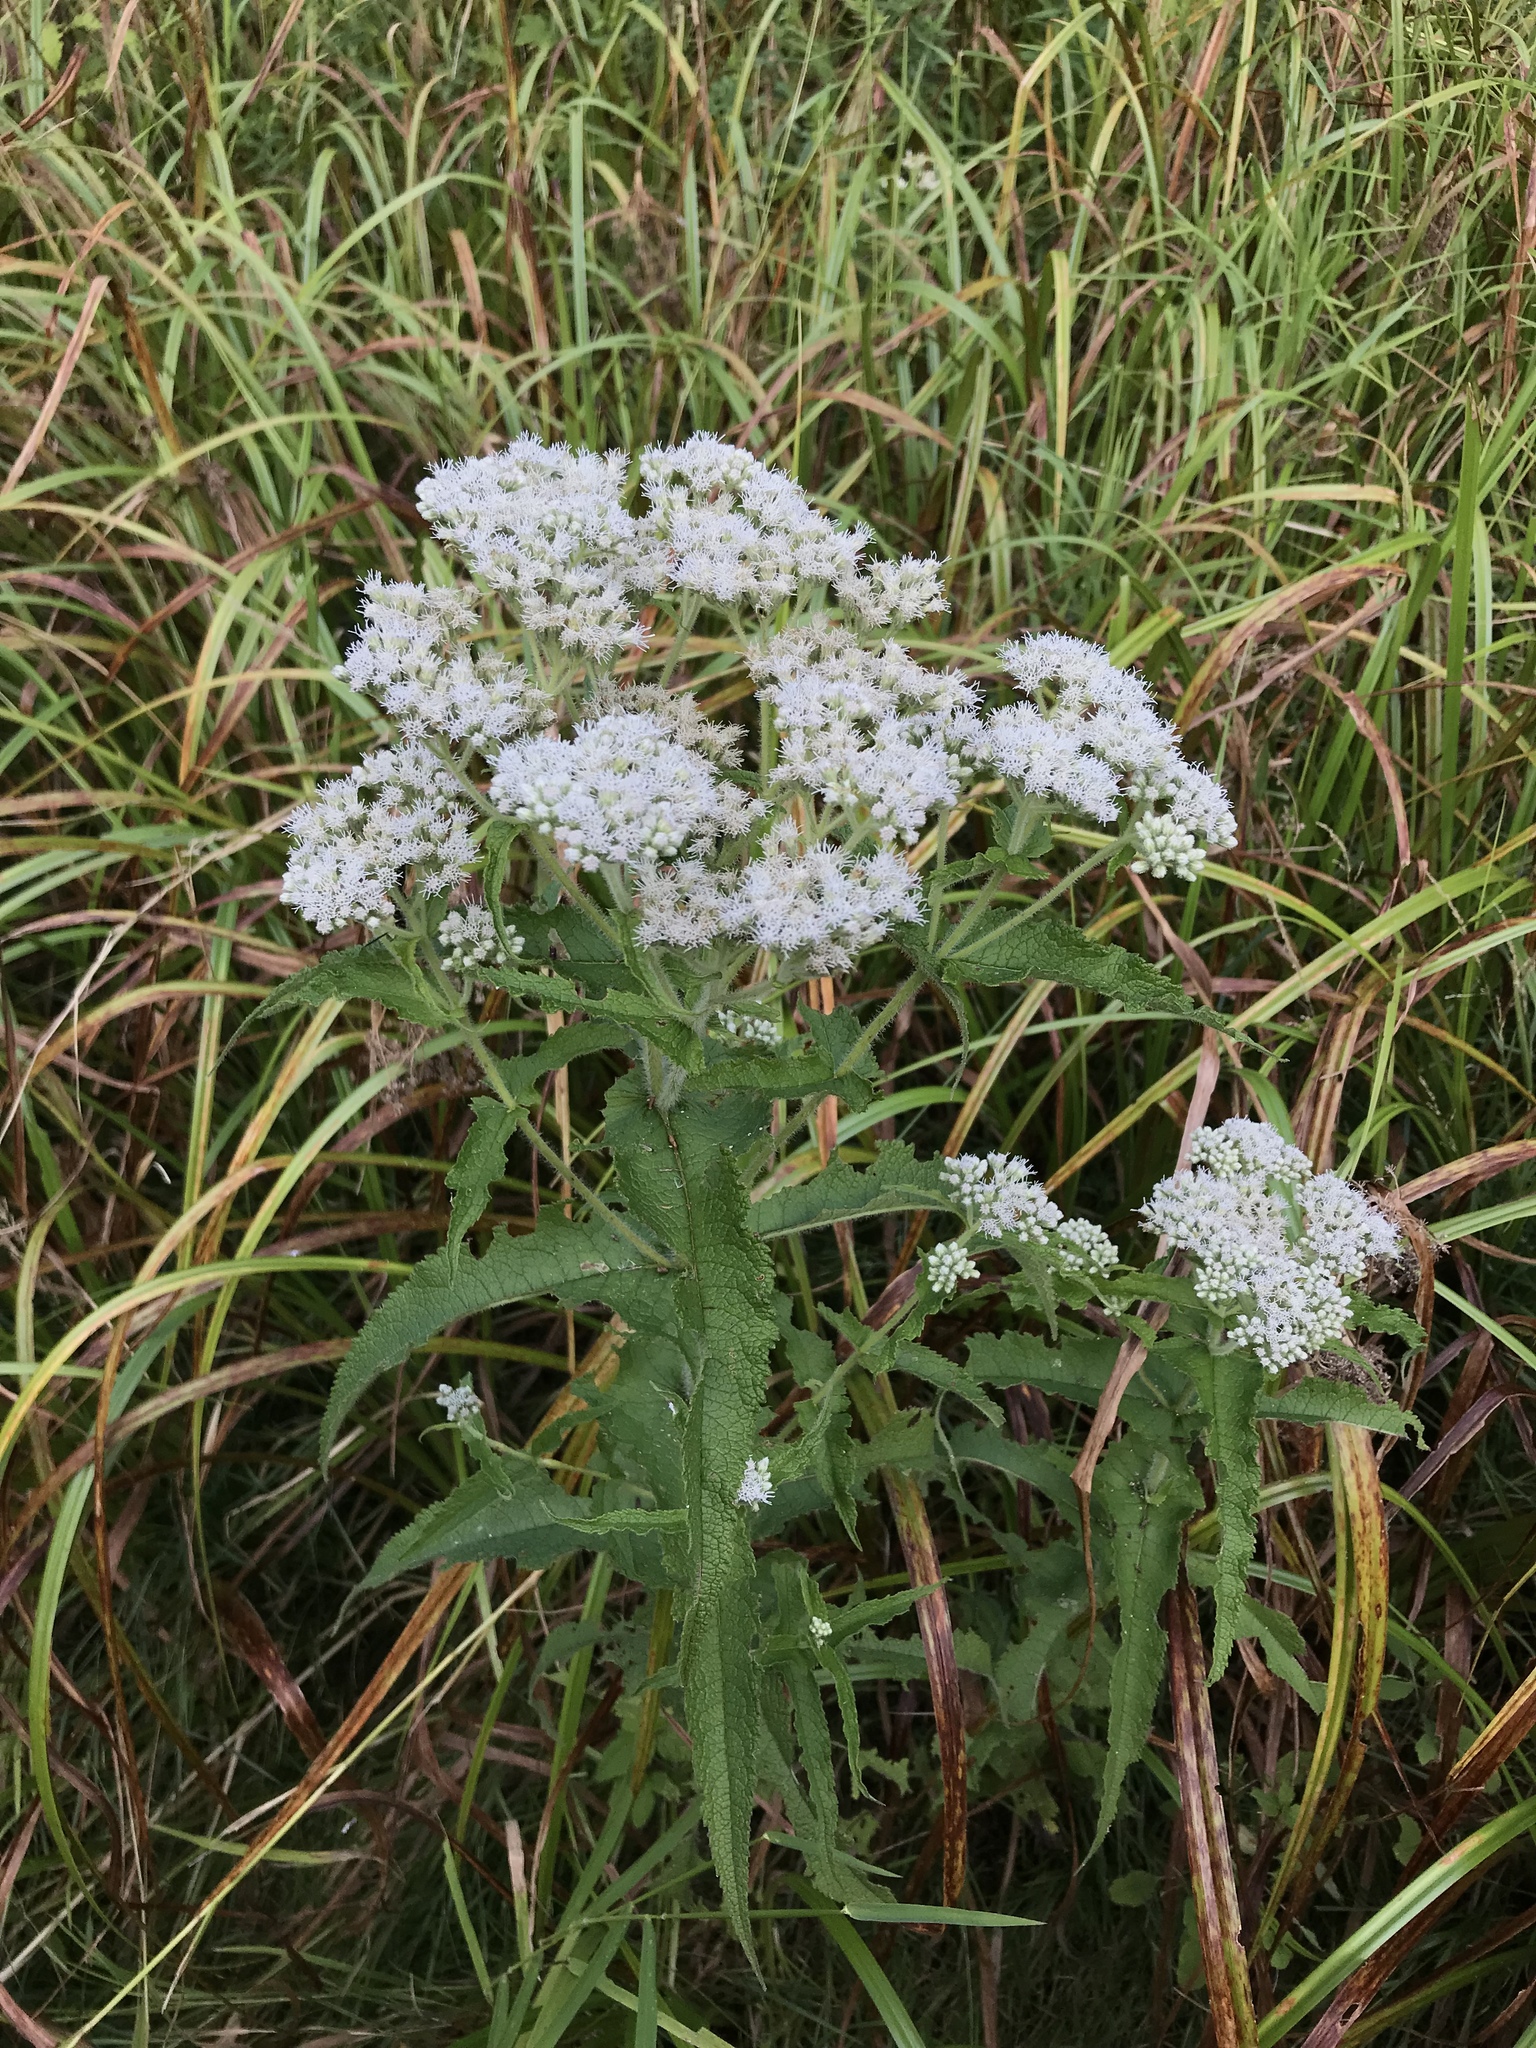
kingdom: Plantae
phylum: Tracheophyta
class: Magnoliopsida
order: Asterales
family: Asteraceae
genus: Eupatorium
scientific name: Eupatorium perfoliatum
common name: Boneset
